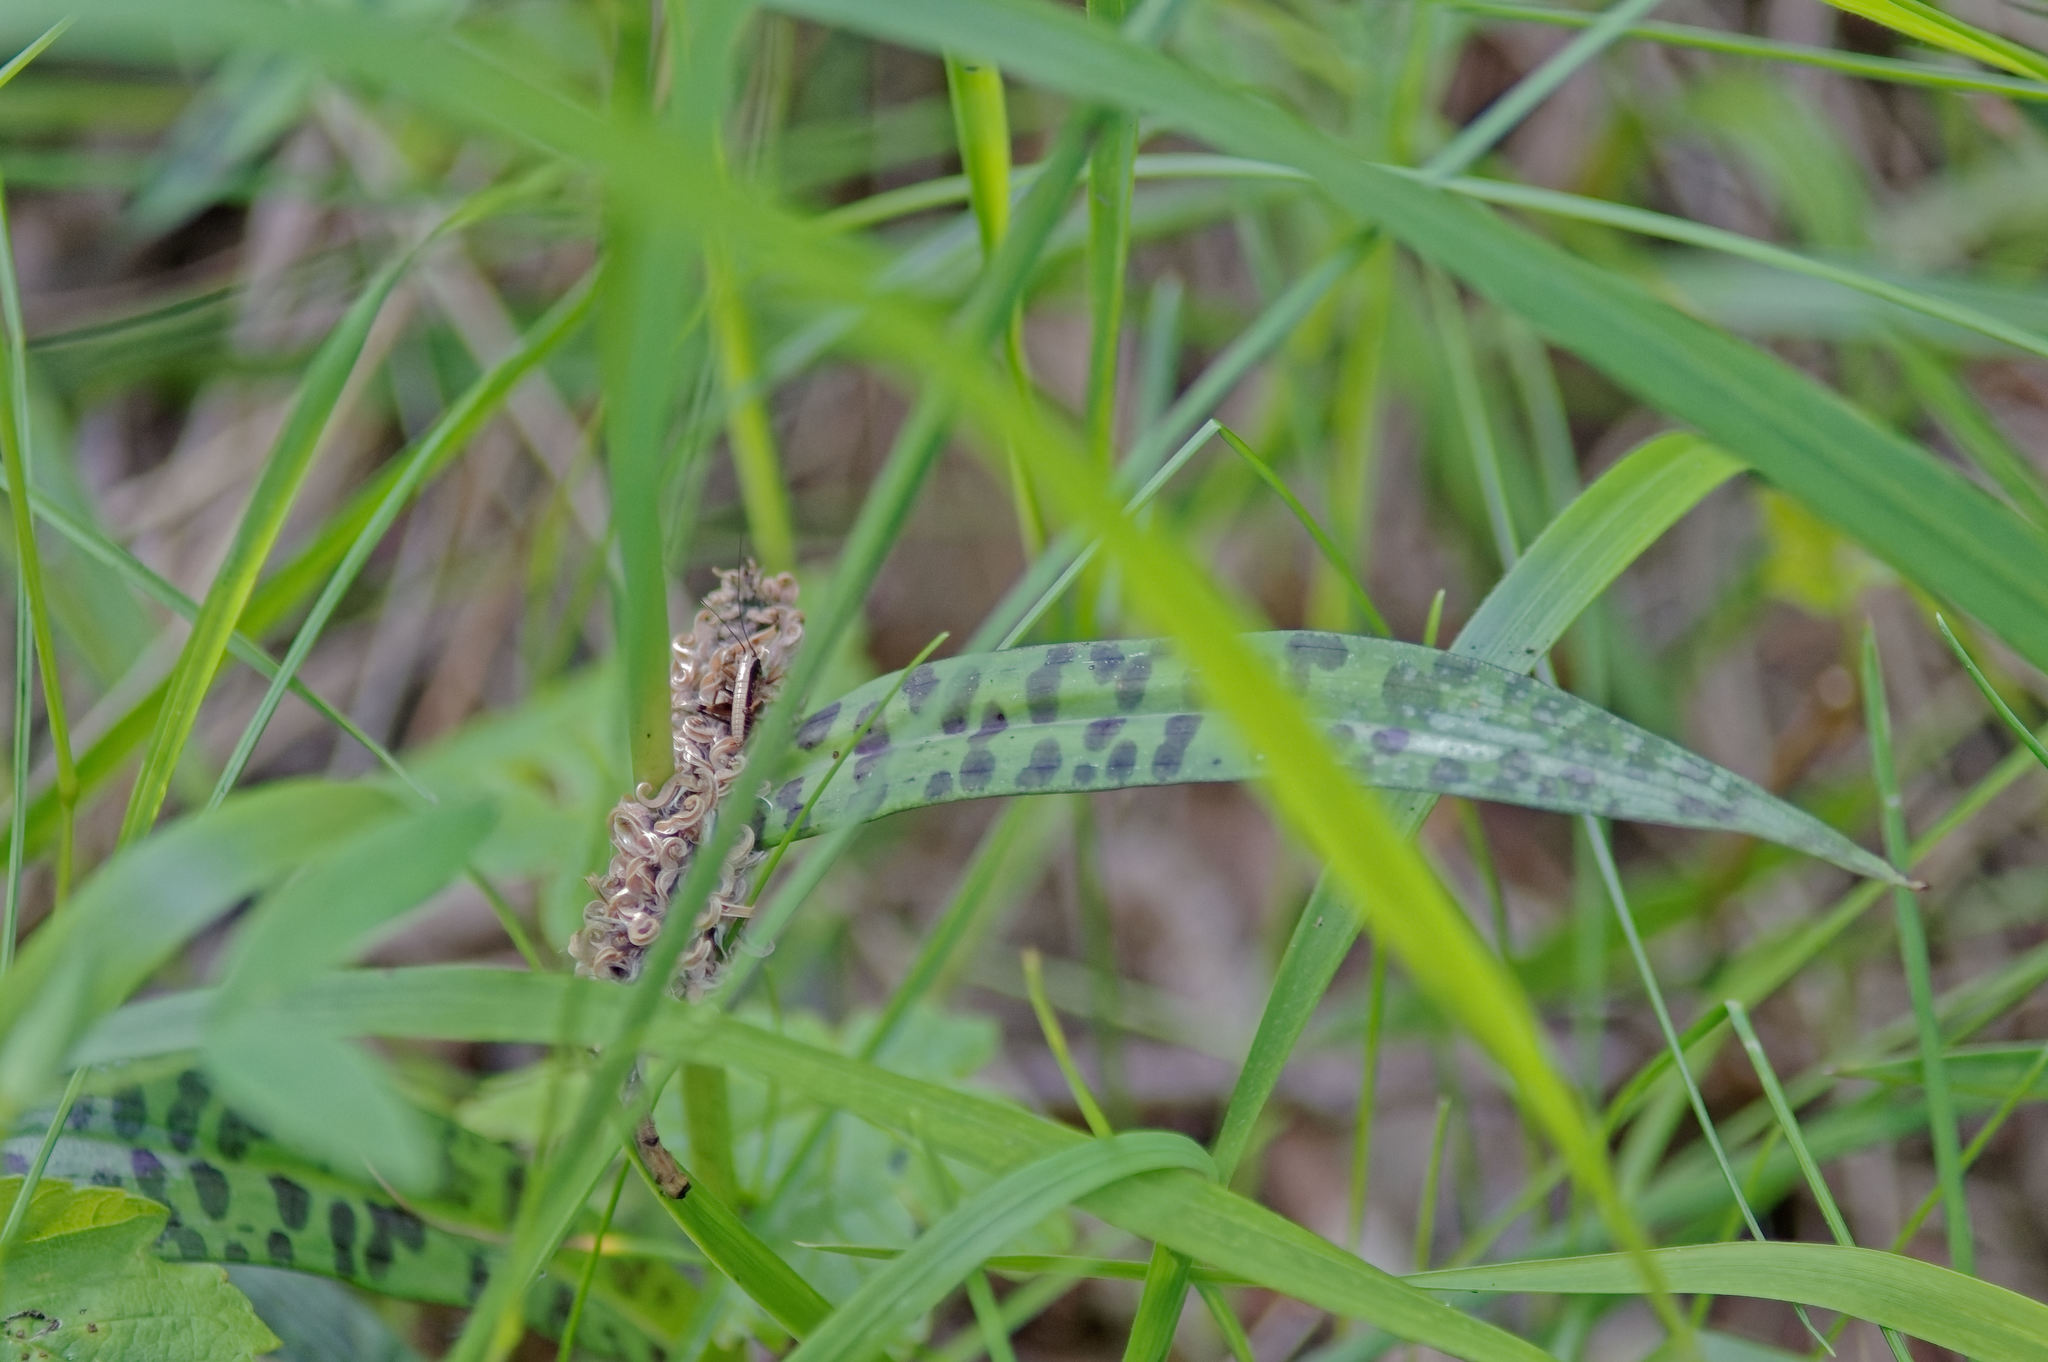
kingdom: Plantae
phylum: Tracheophyta
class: Liliopsida
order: Asparagales
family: Orchidaceae
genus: Dactylorhiza
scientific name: Dactylorhiza maculata
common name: Heath spotted-orchid
